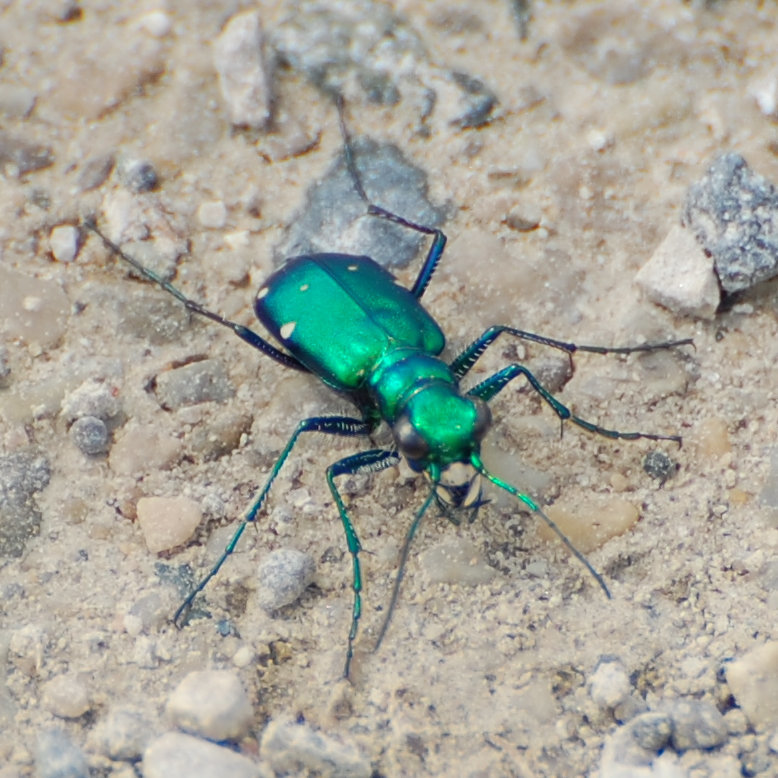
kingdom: Animalia
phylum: Arthropoda
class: Insecta
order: Coleoptera
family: Carabidae
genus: Cicindela
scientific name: Cicindela sexguttata
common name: Six-spotted tiger beetle
